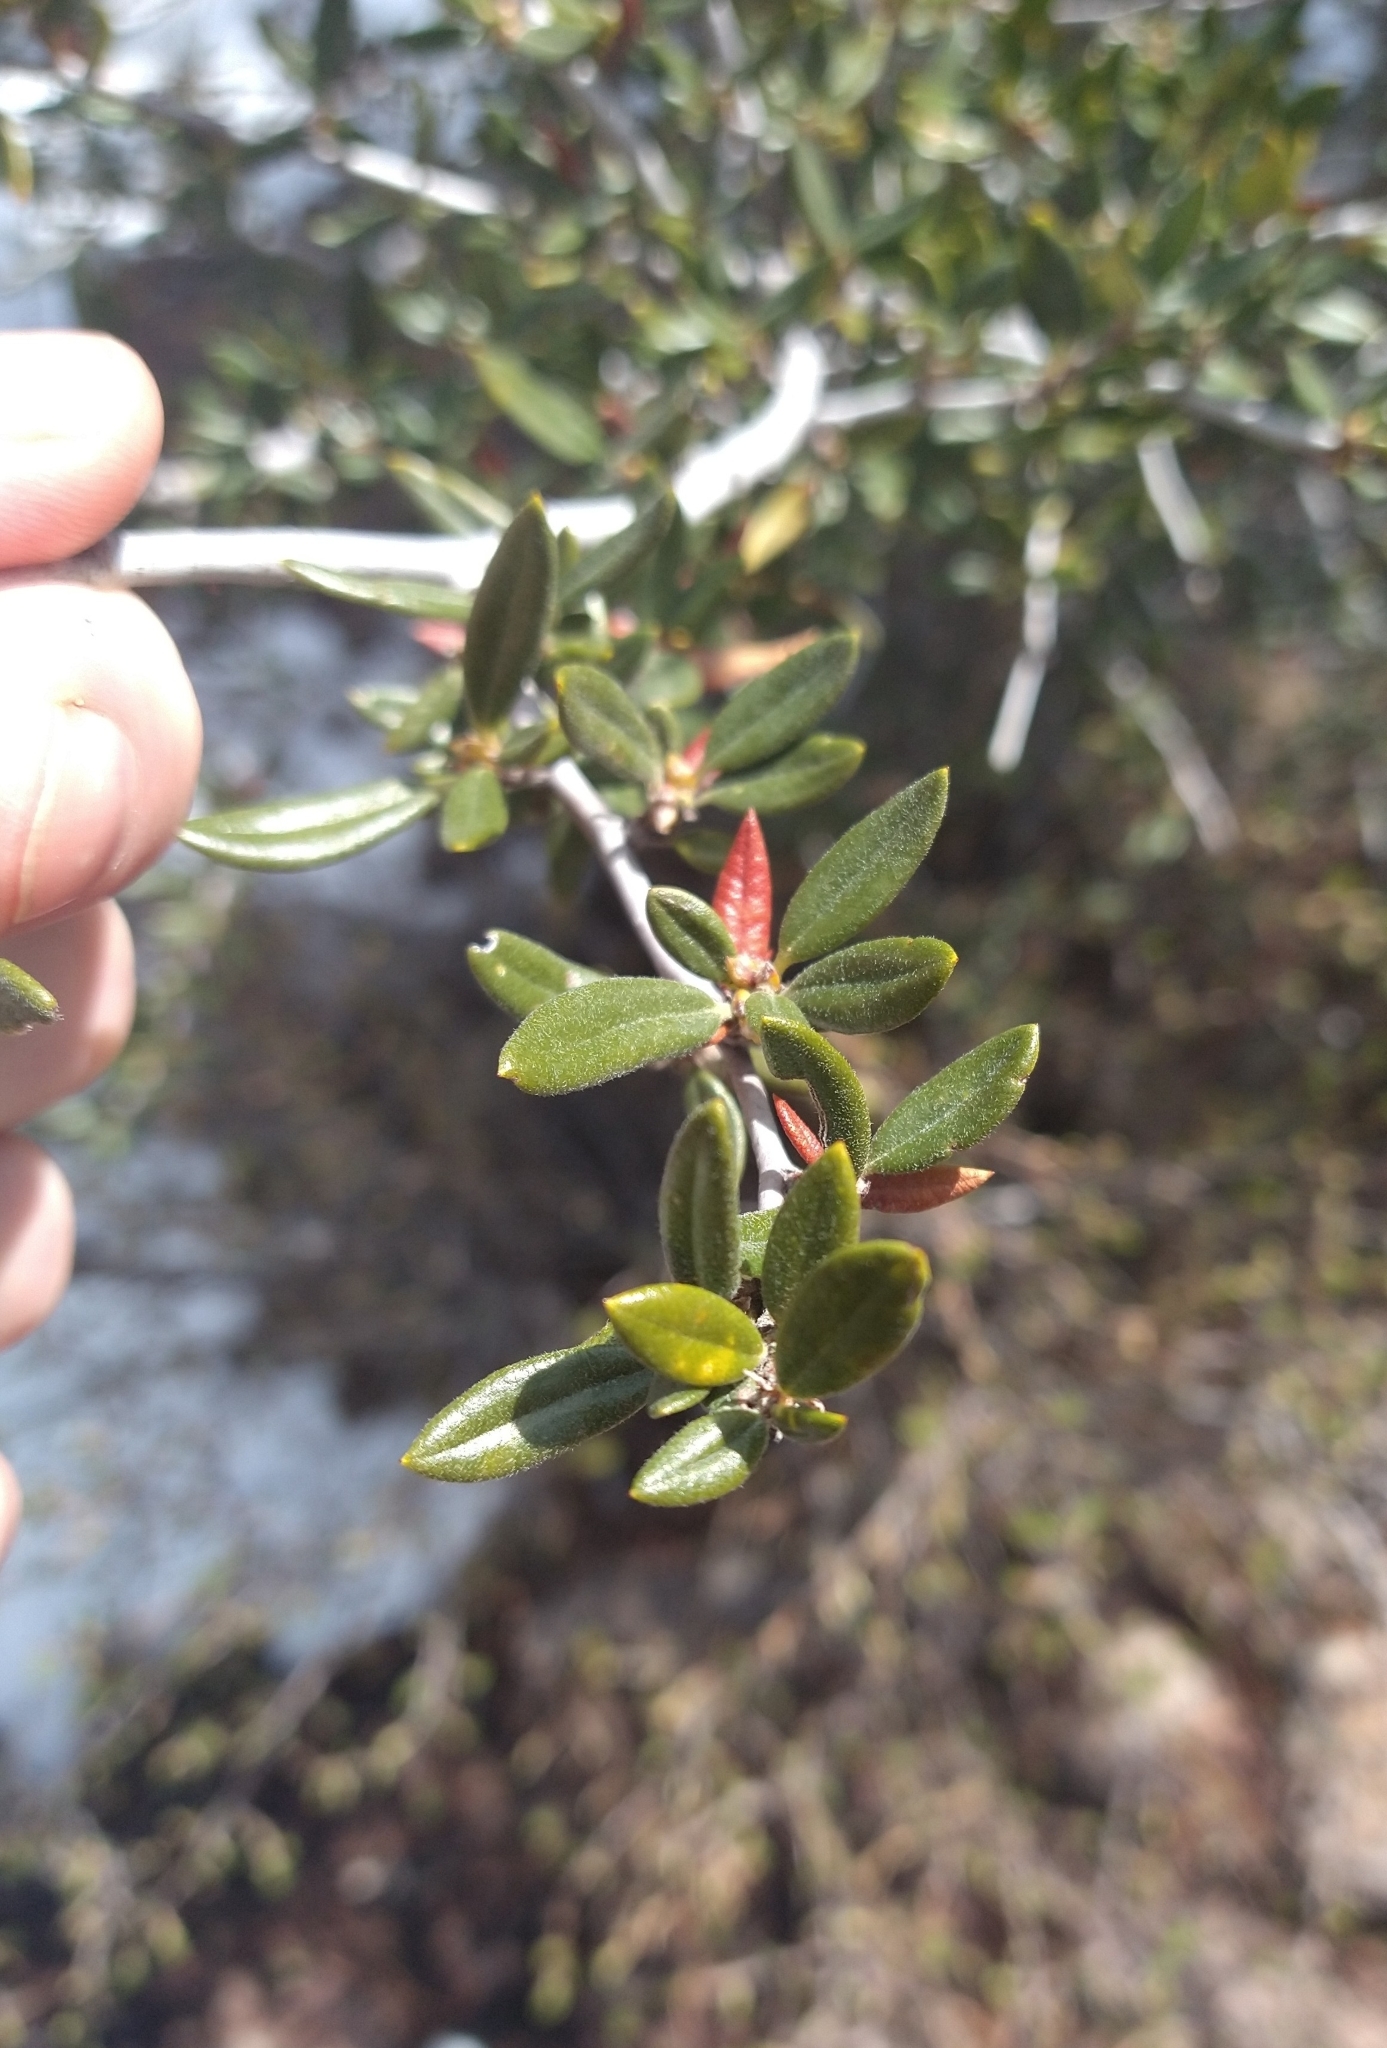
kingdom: Plantae
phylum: Tracheophyta
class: Magnoliopsida
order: Rosales
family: Rosaceae
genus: Cercocarpus
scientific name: Cercocarpus ledifolius
